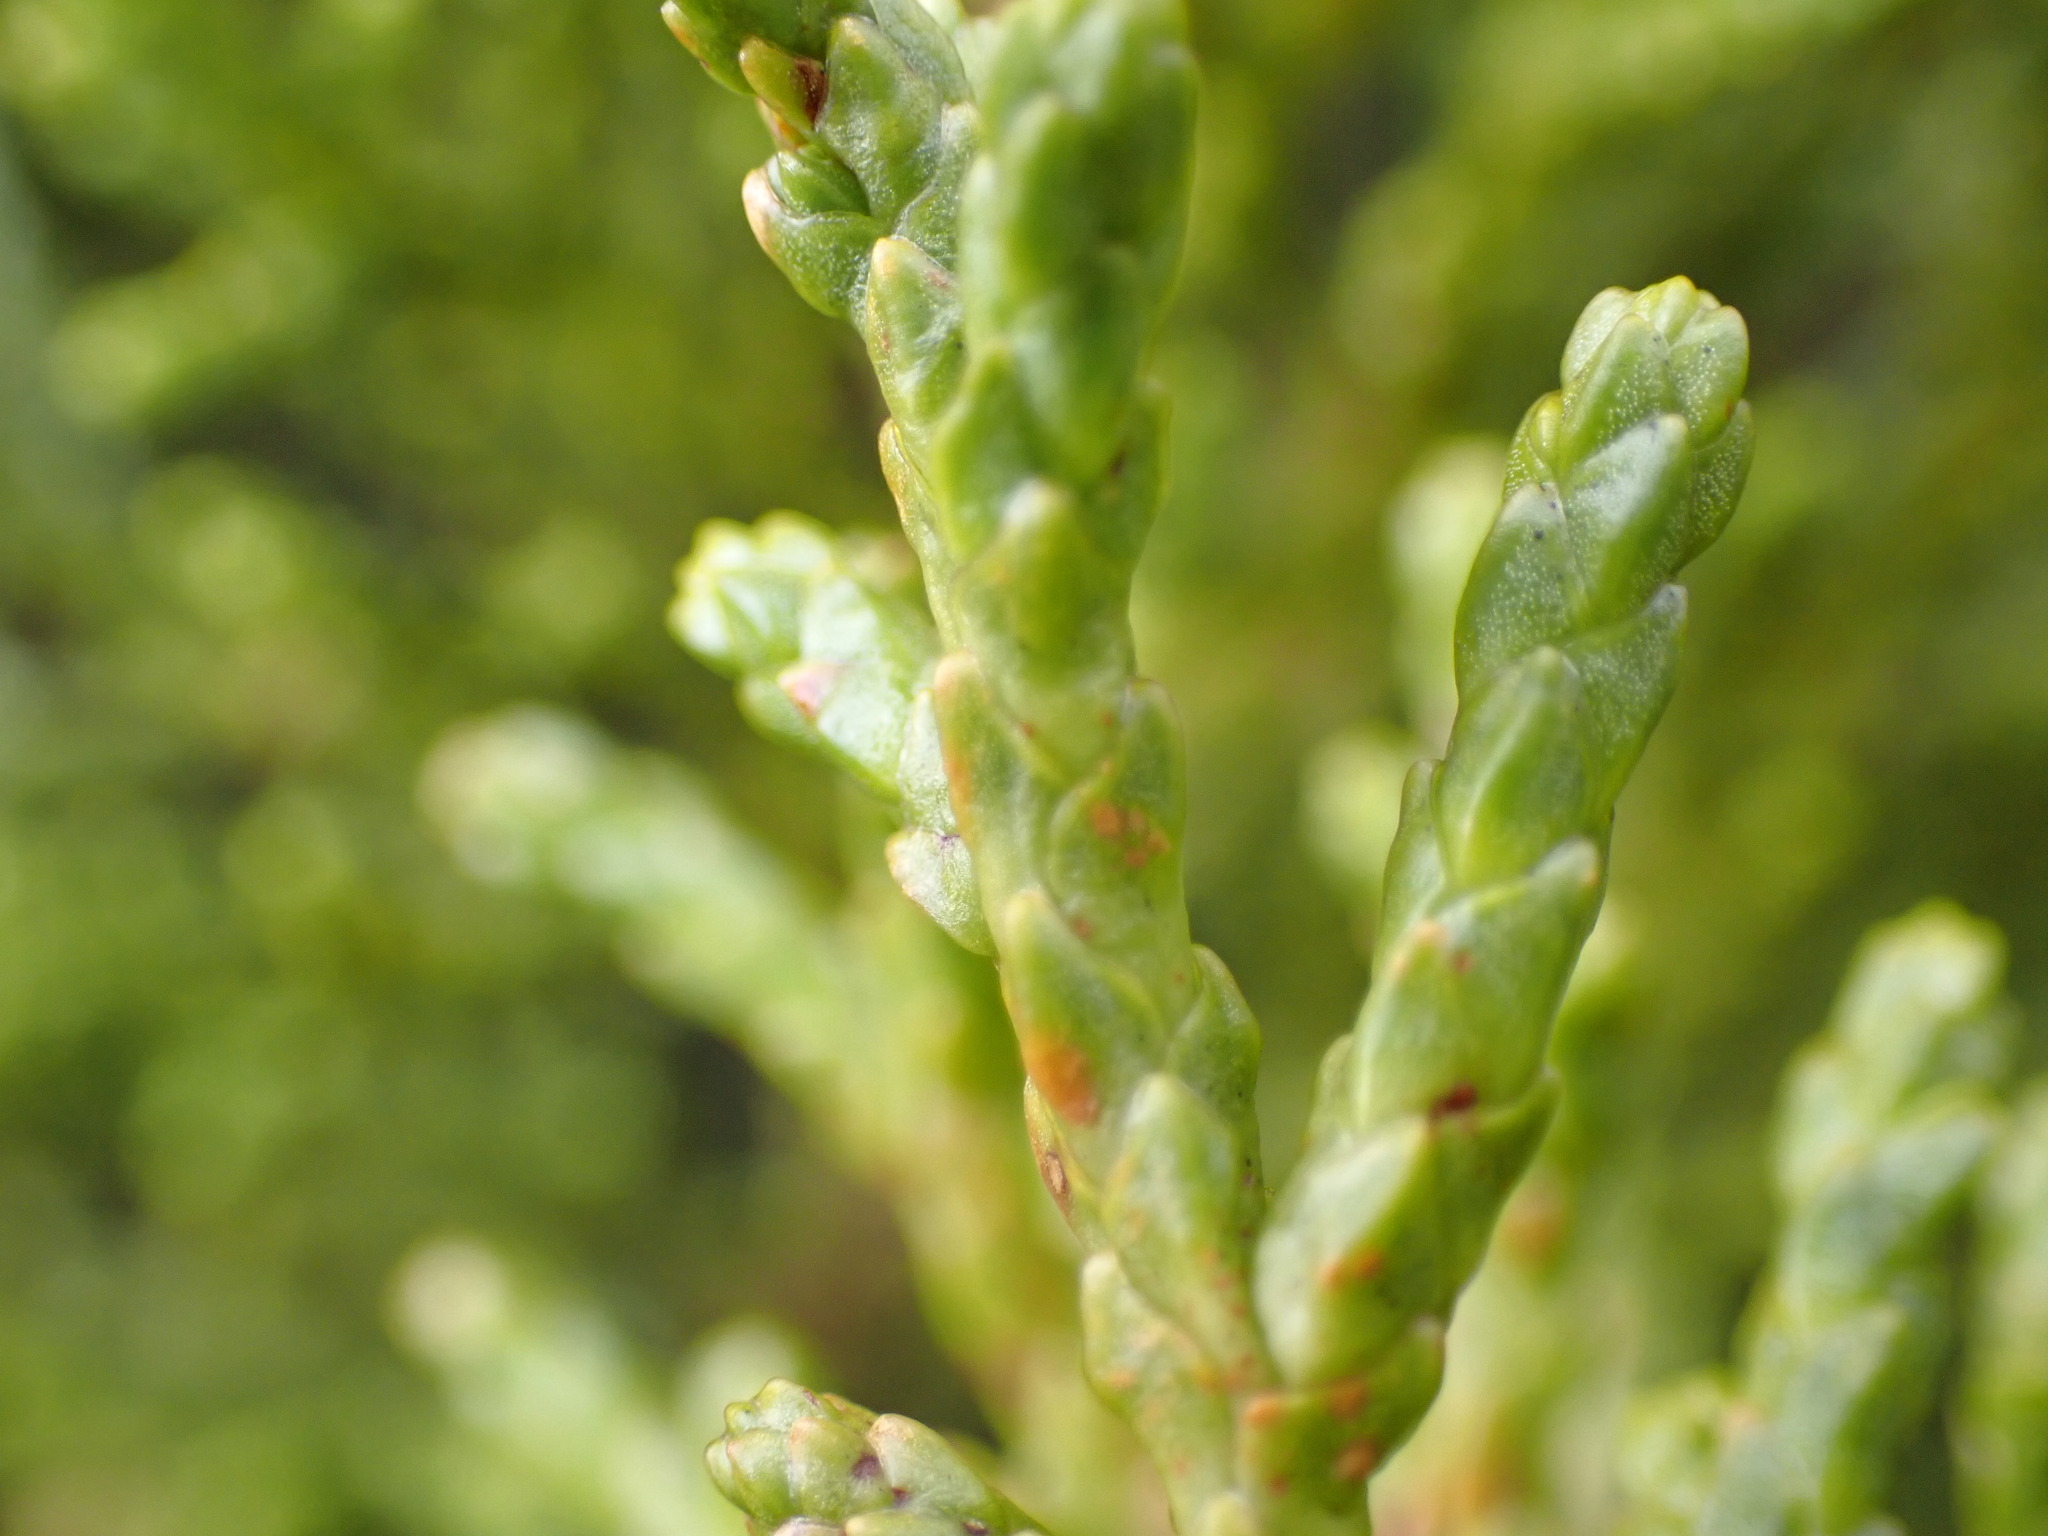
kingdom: Plantae
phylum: Tracheophyta
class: Pinopsida
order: Pinales
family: Podocarpaceae
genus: Halocarpus
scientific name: Halocarpus biformis
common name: Alpine tarwood
